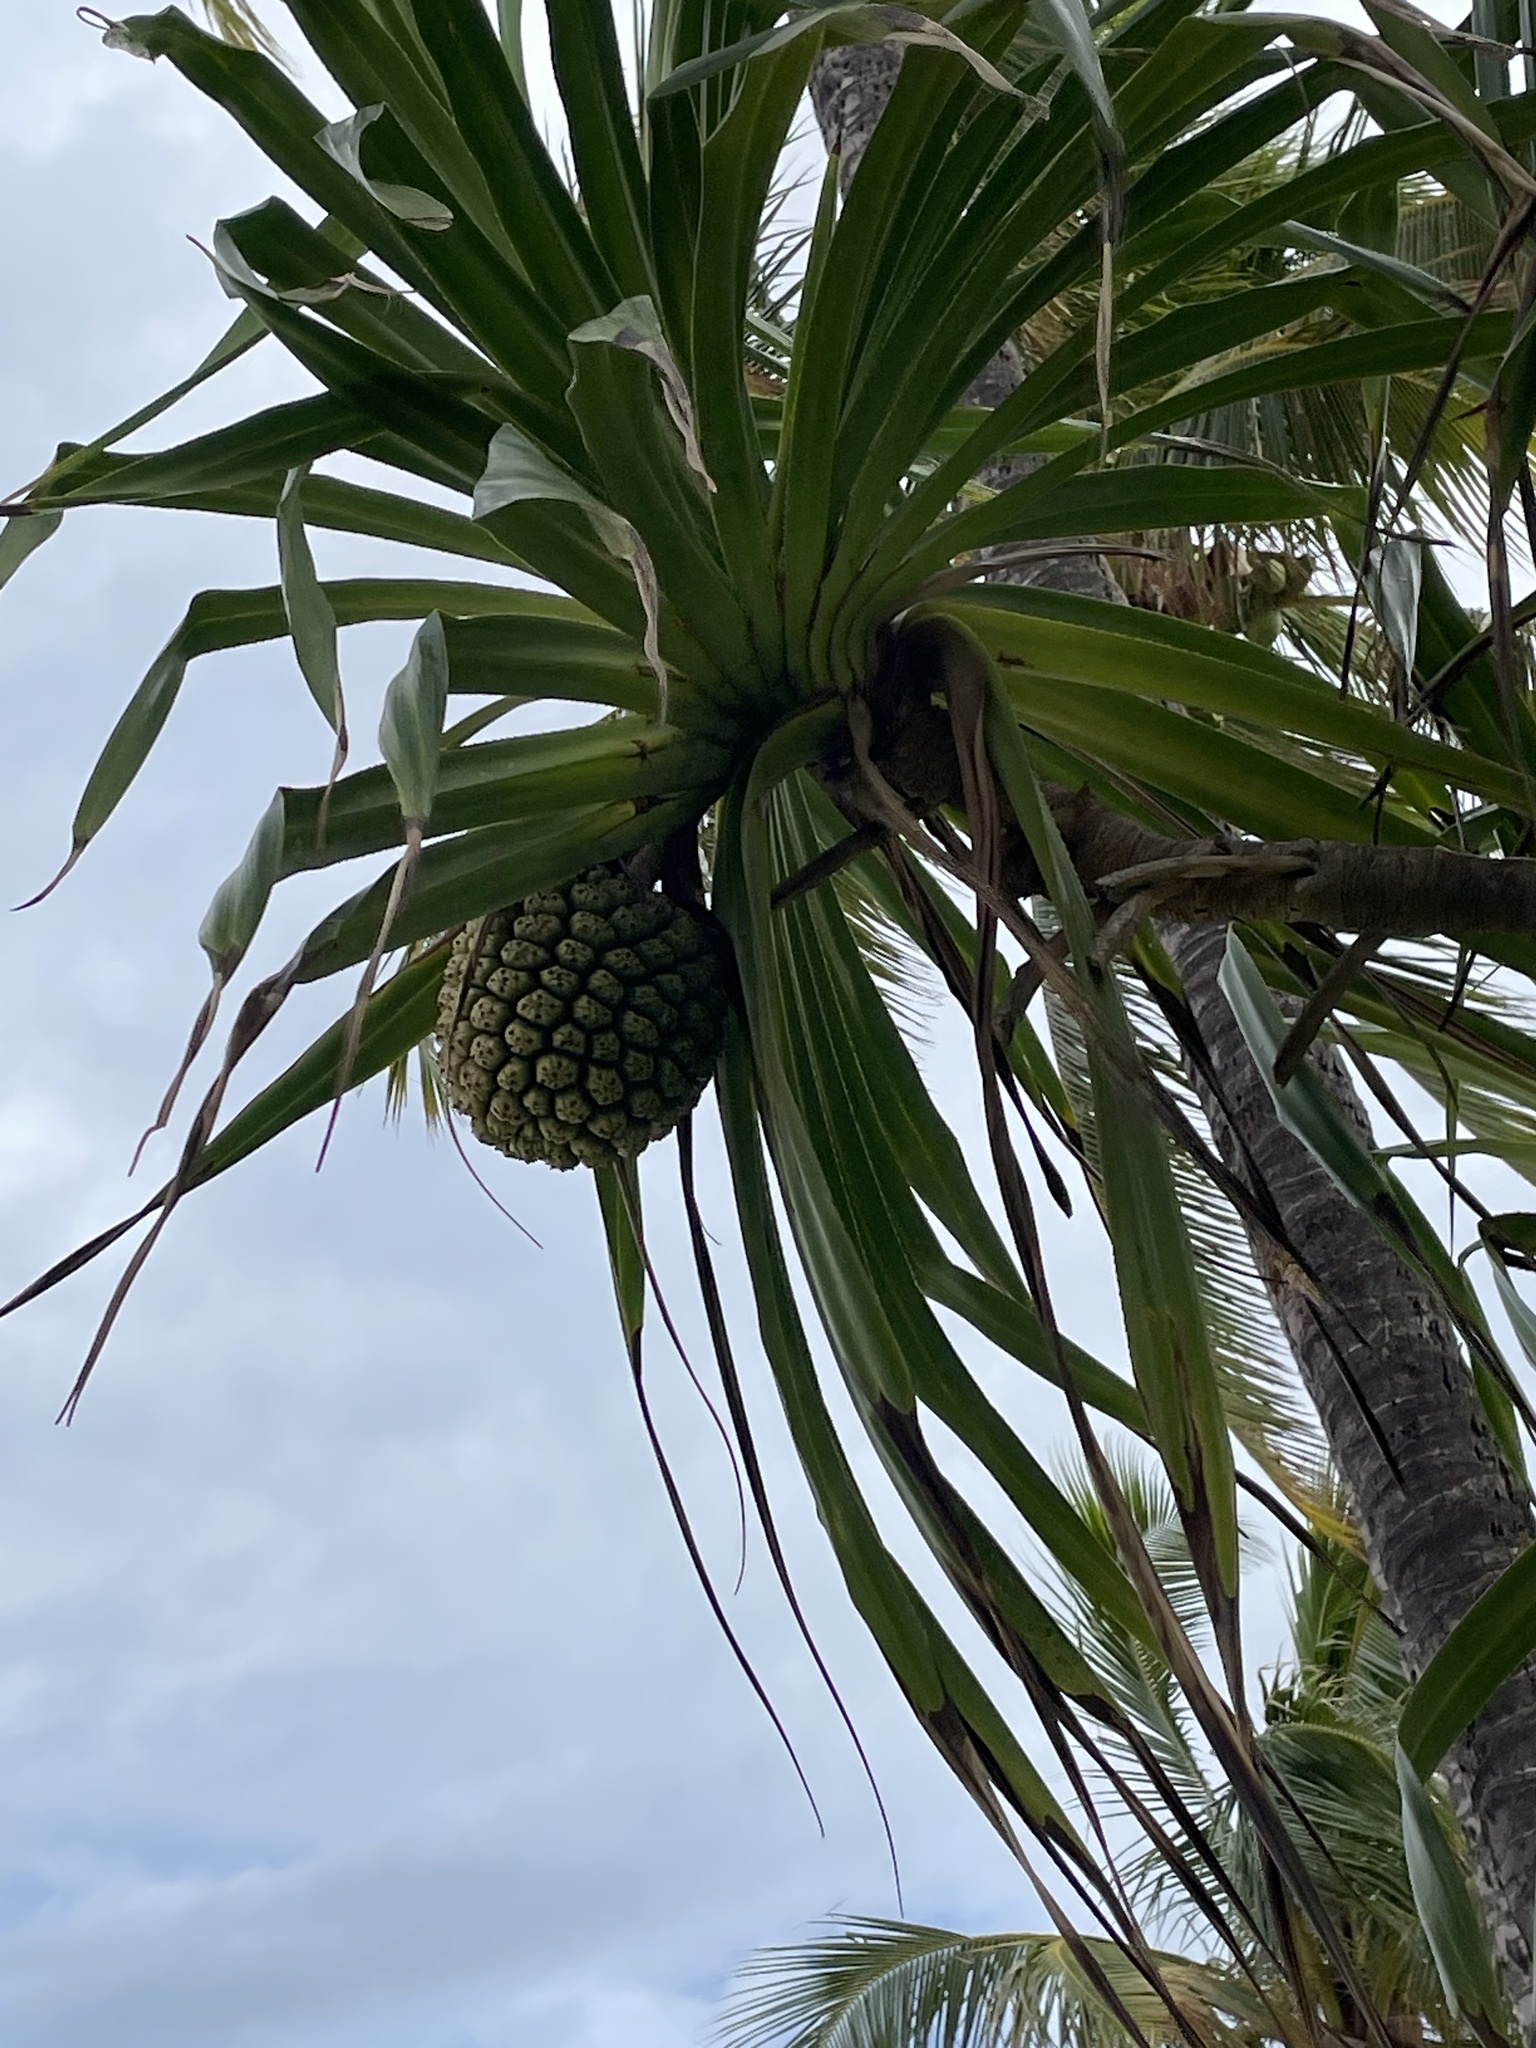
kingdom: Plantae
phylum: Tracheophyta
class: Liliopsida
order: Pandanales
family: Pandanaceae
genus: Pandanus
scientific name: Pandanus tectorius
